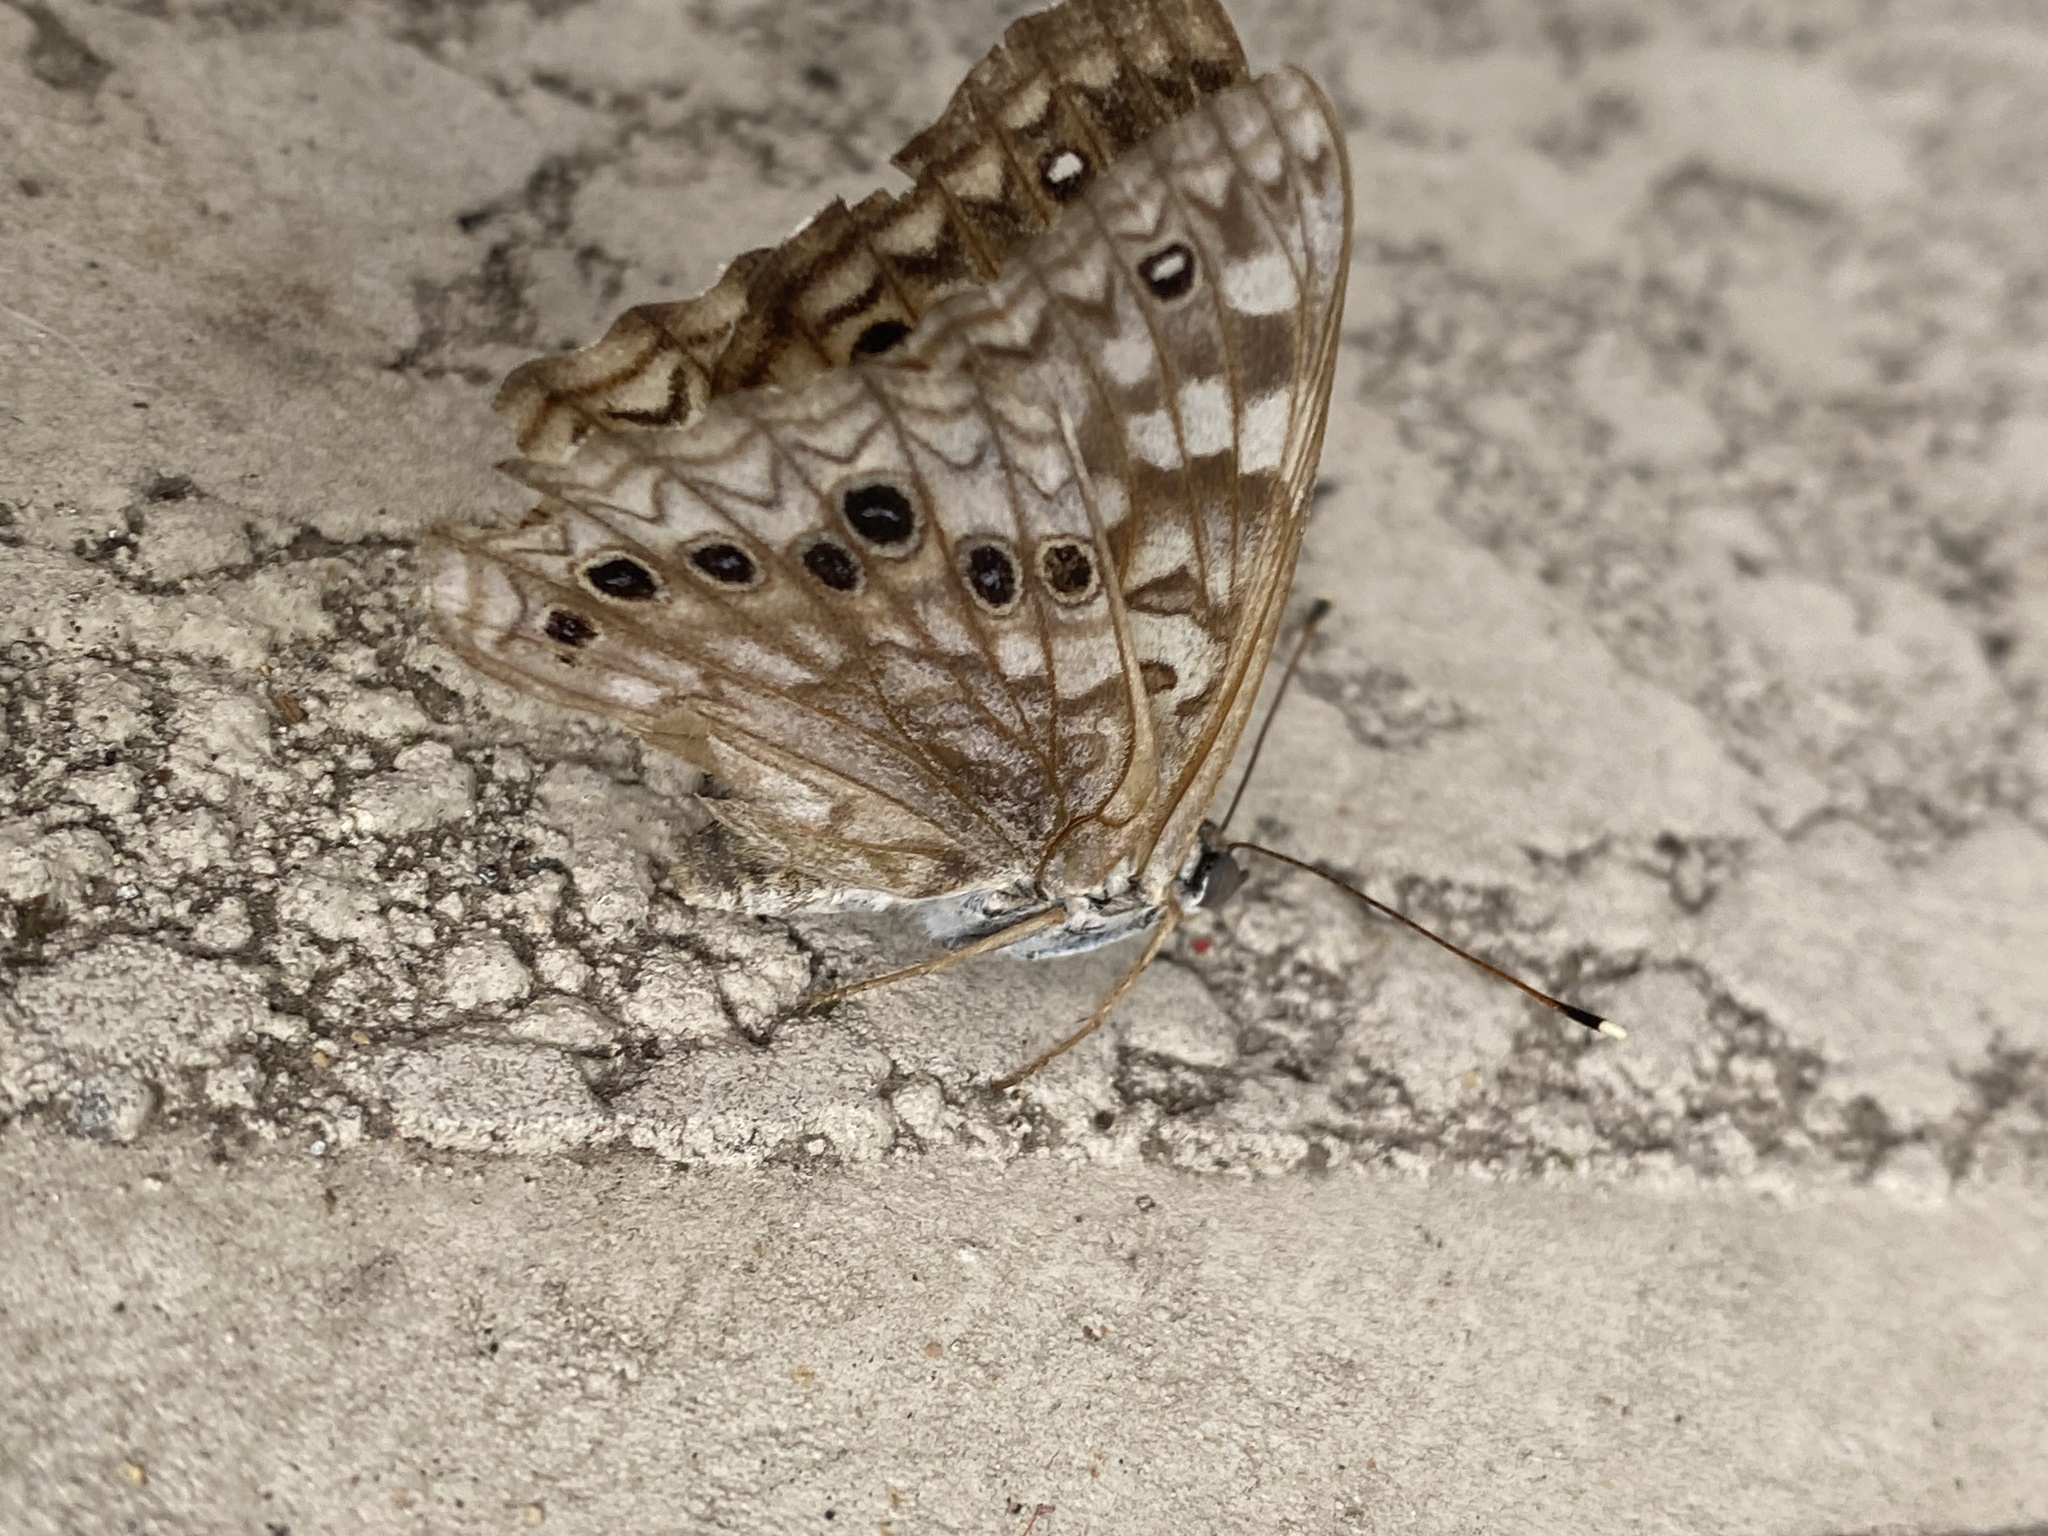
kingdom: Animalia
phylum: Arthropoda
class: Insecta
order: Lepidoptera
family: Nymphalidae
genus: Asterocampa
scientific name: Asterocampa celtis
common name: Hackberry emperor
